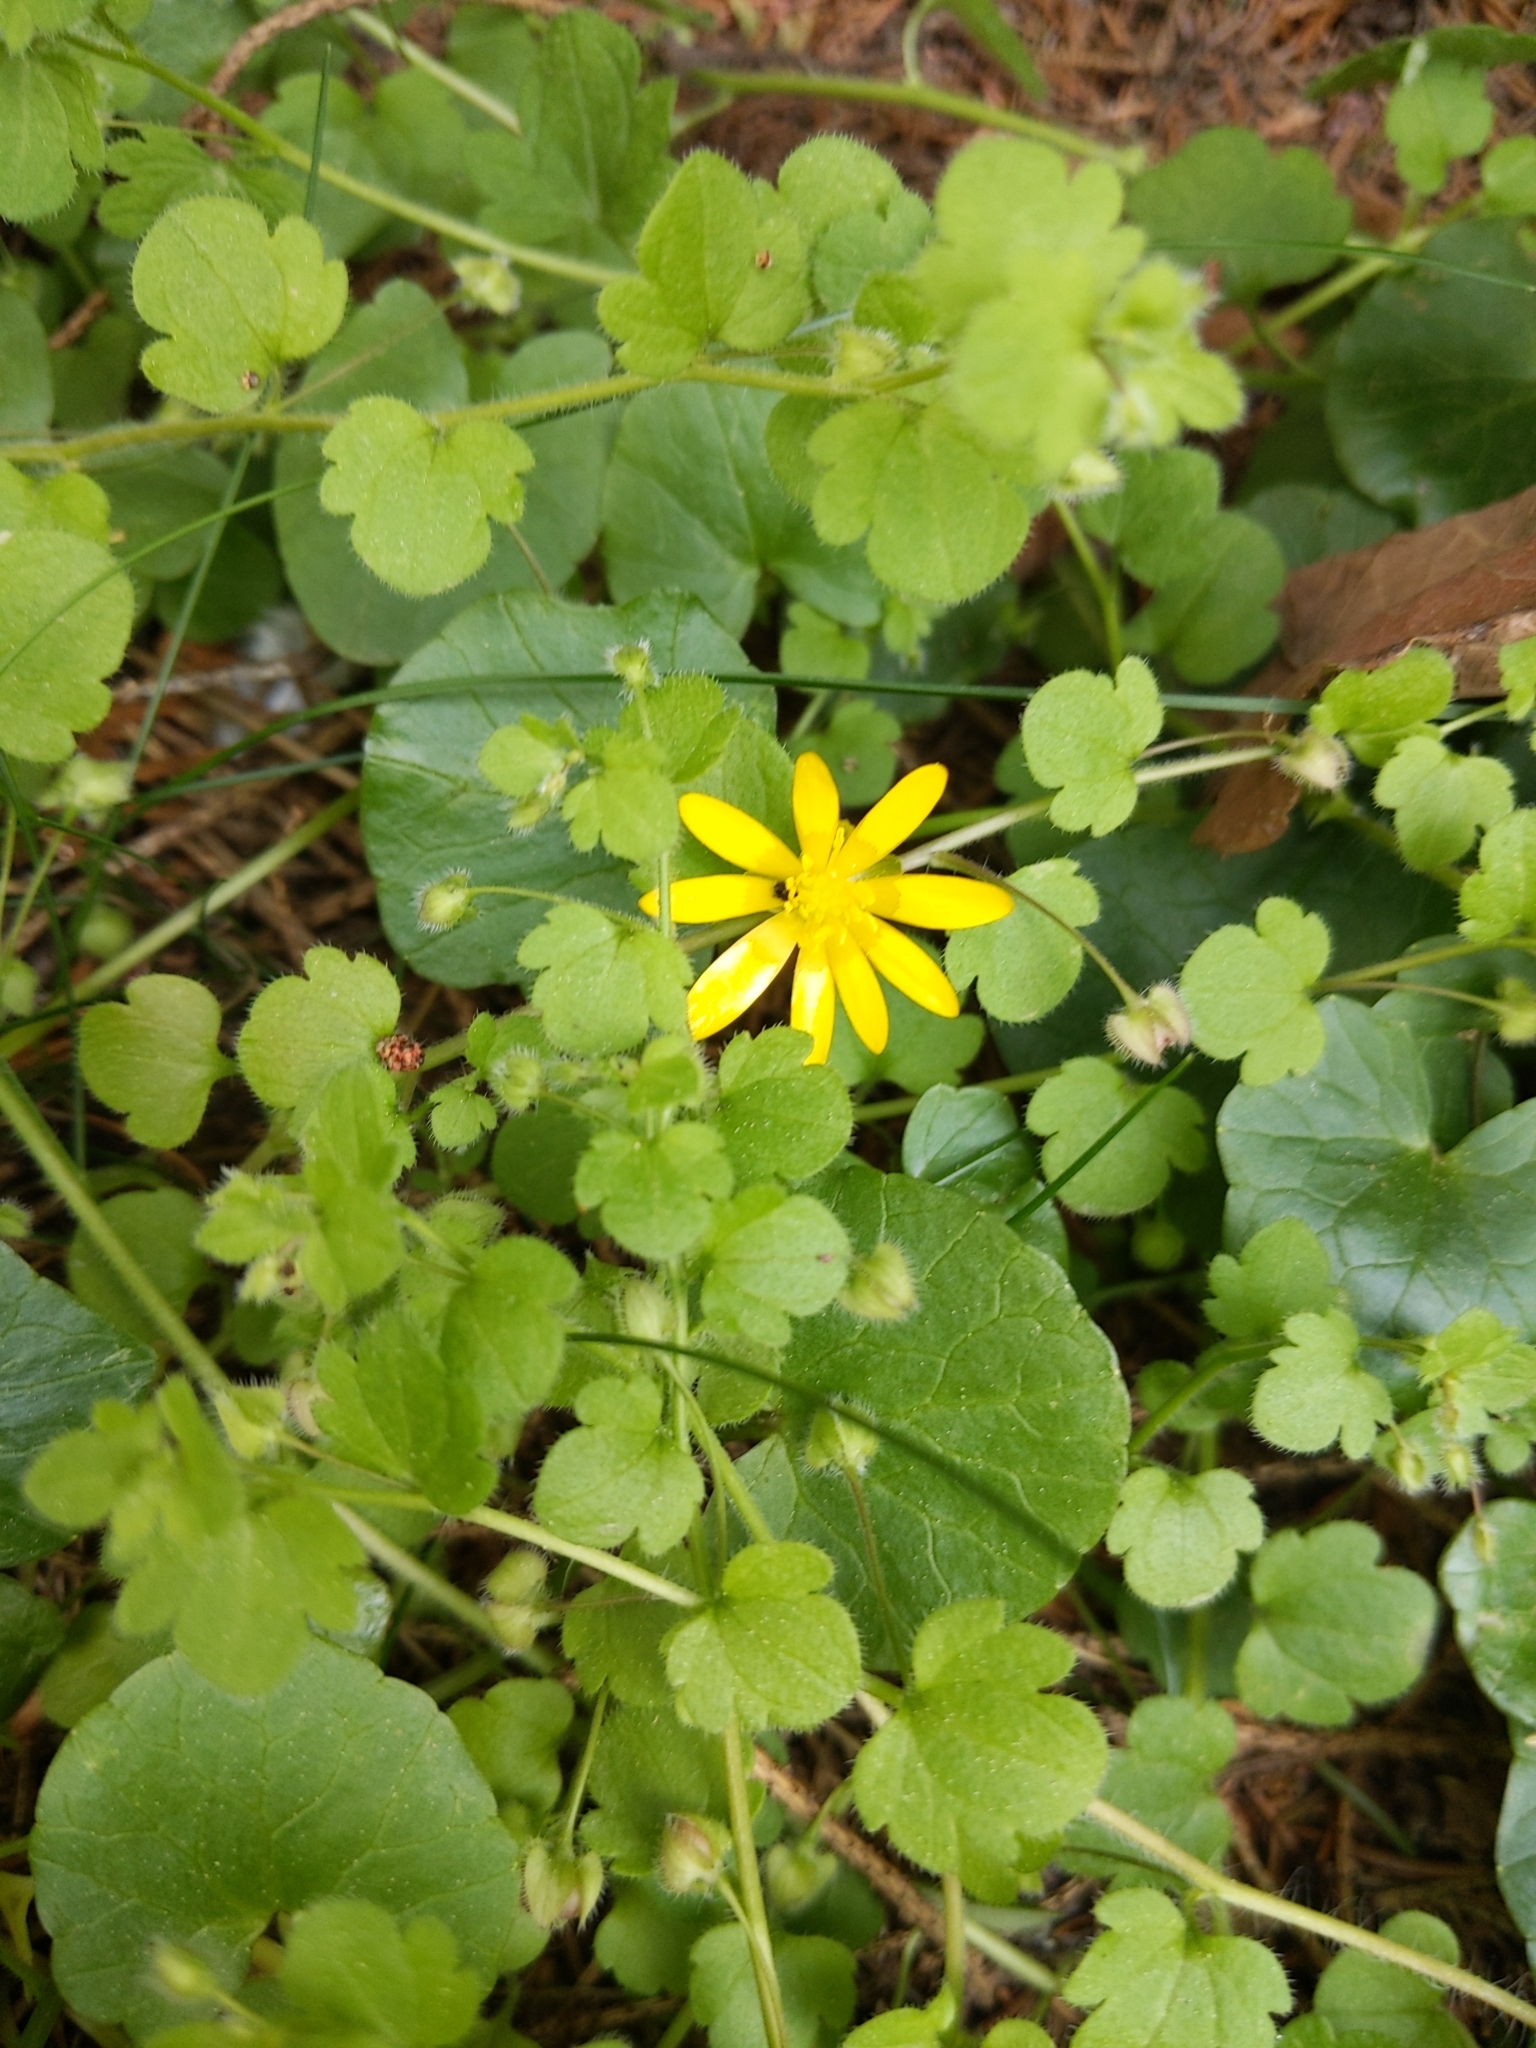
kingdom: Plantae
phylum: Tracheophyta
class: Magnoliopsida
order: Ranunculales
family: Ranunculaceae
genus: Ficaria
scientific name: Ficaria verna
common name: Lesser celandine
